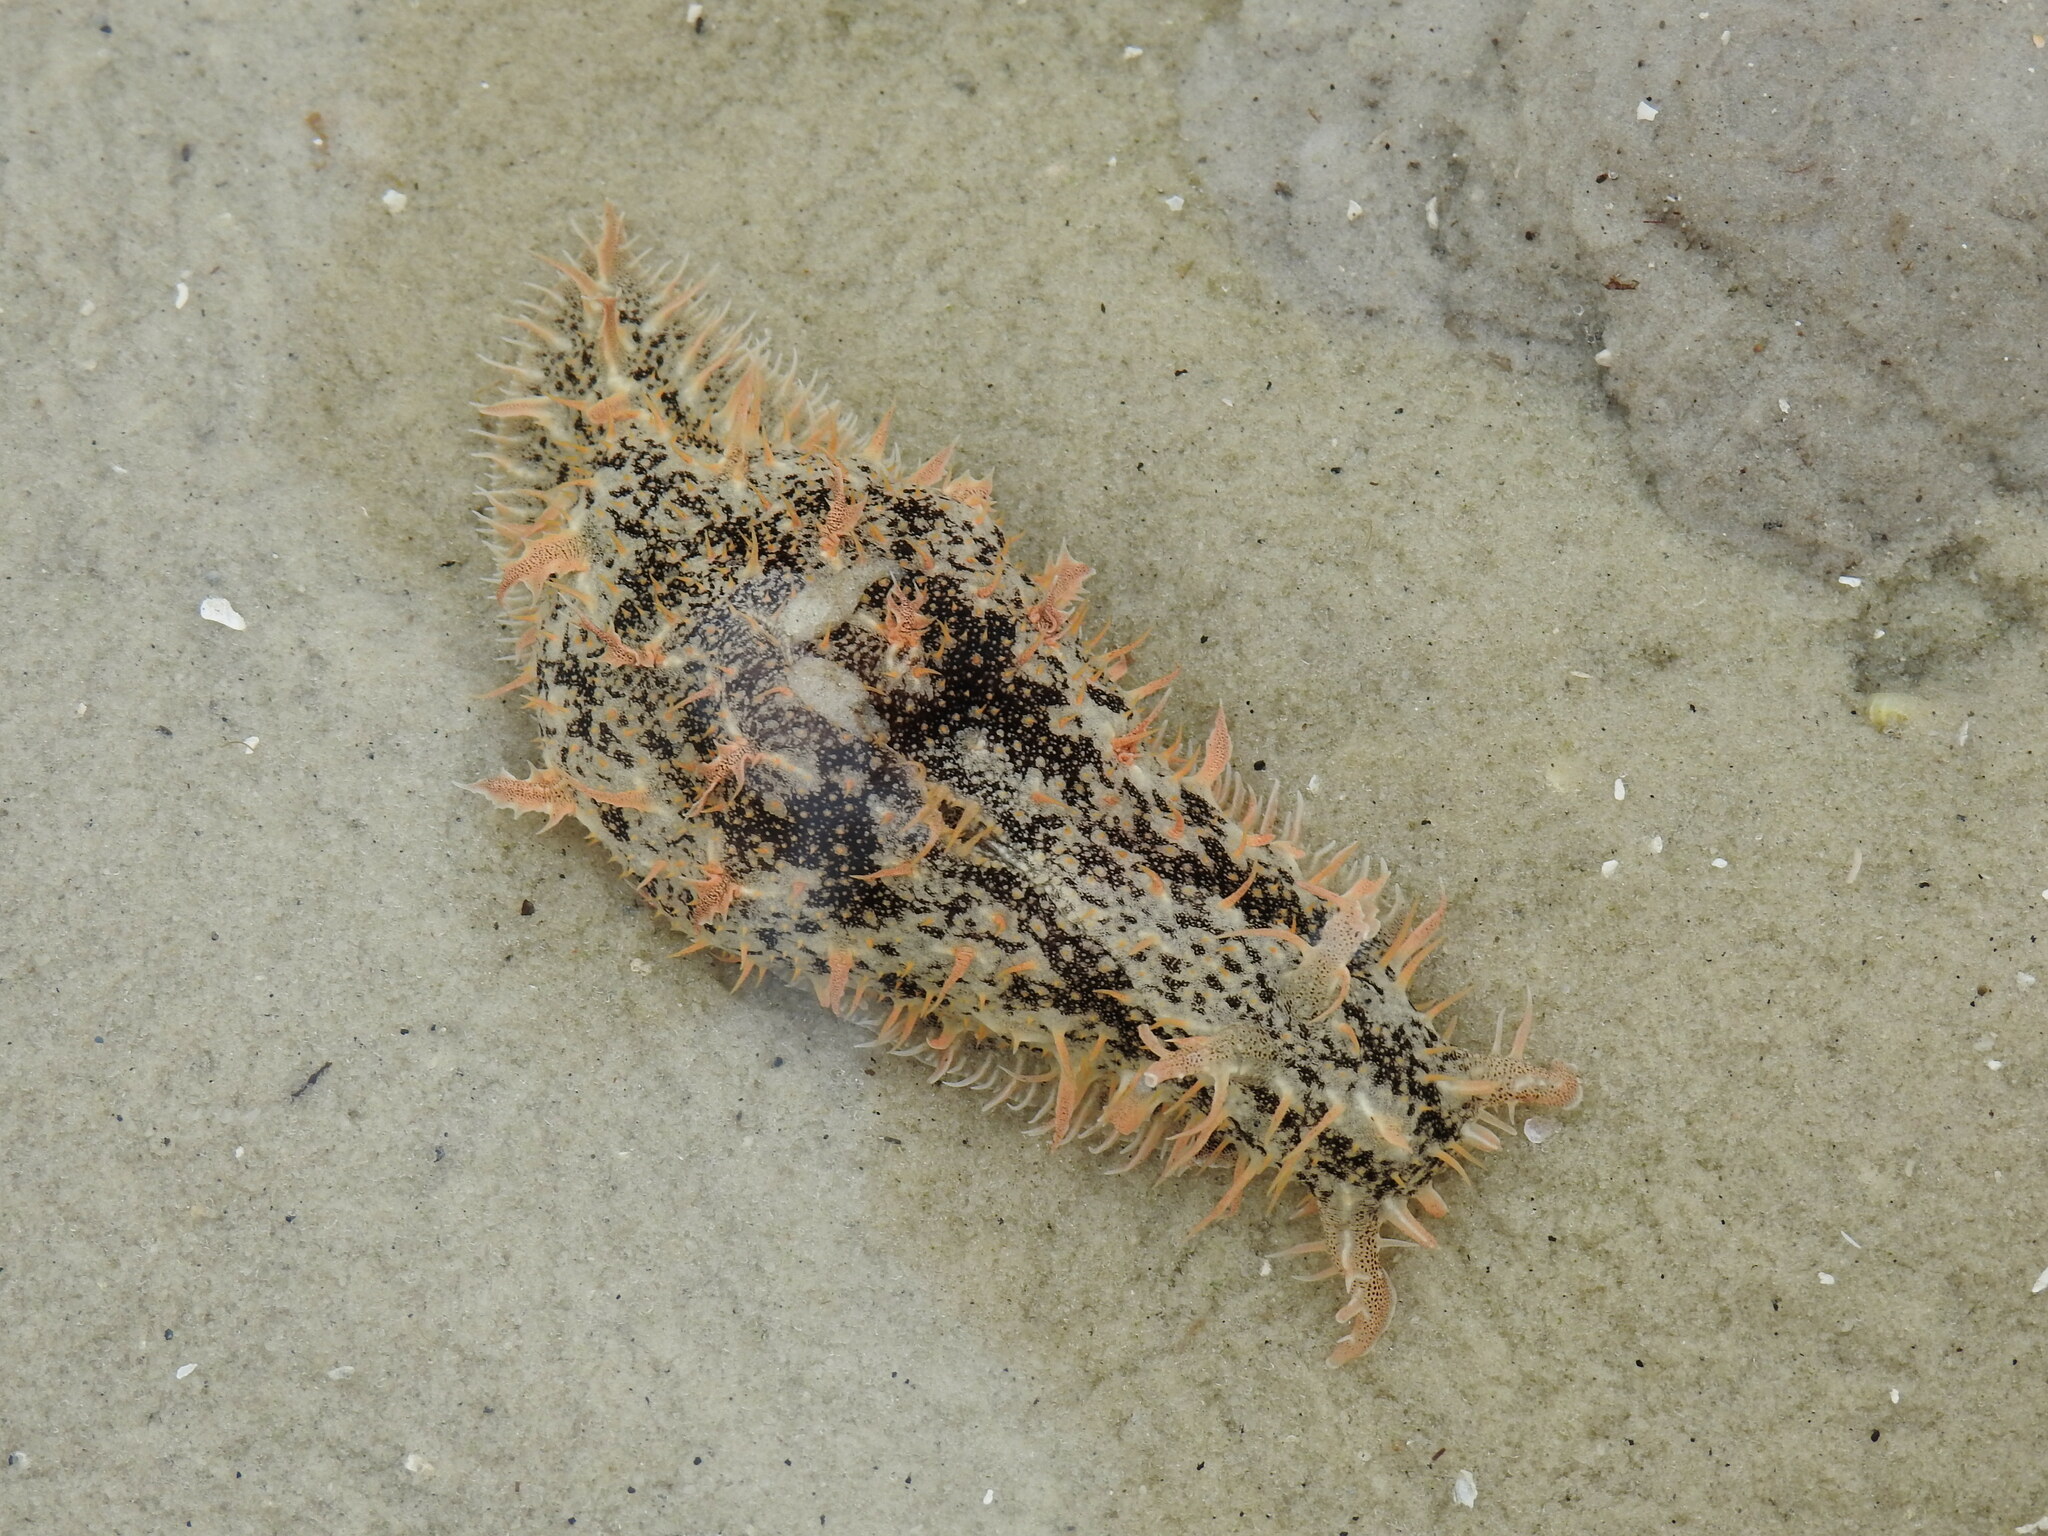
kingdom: Animalia
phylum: Mollusca
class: Gastropoda
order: Aplysiida
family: Aplysiidae
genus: Bursatella
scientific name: Bursatella leachii
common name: Shaggy sea hare
